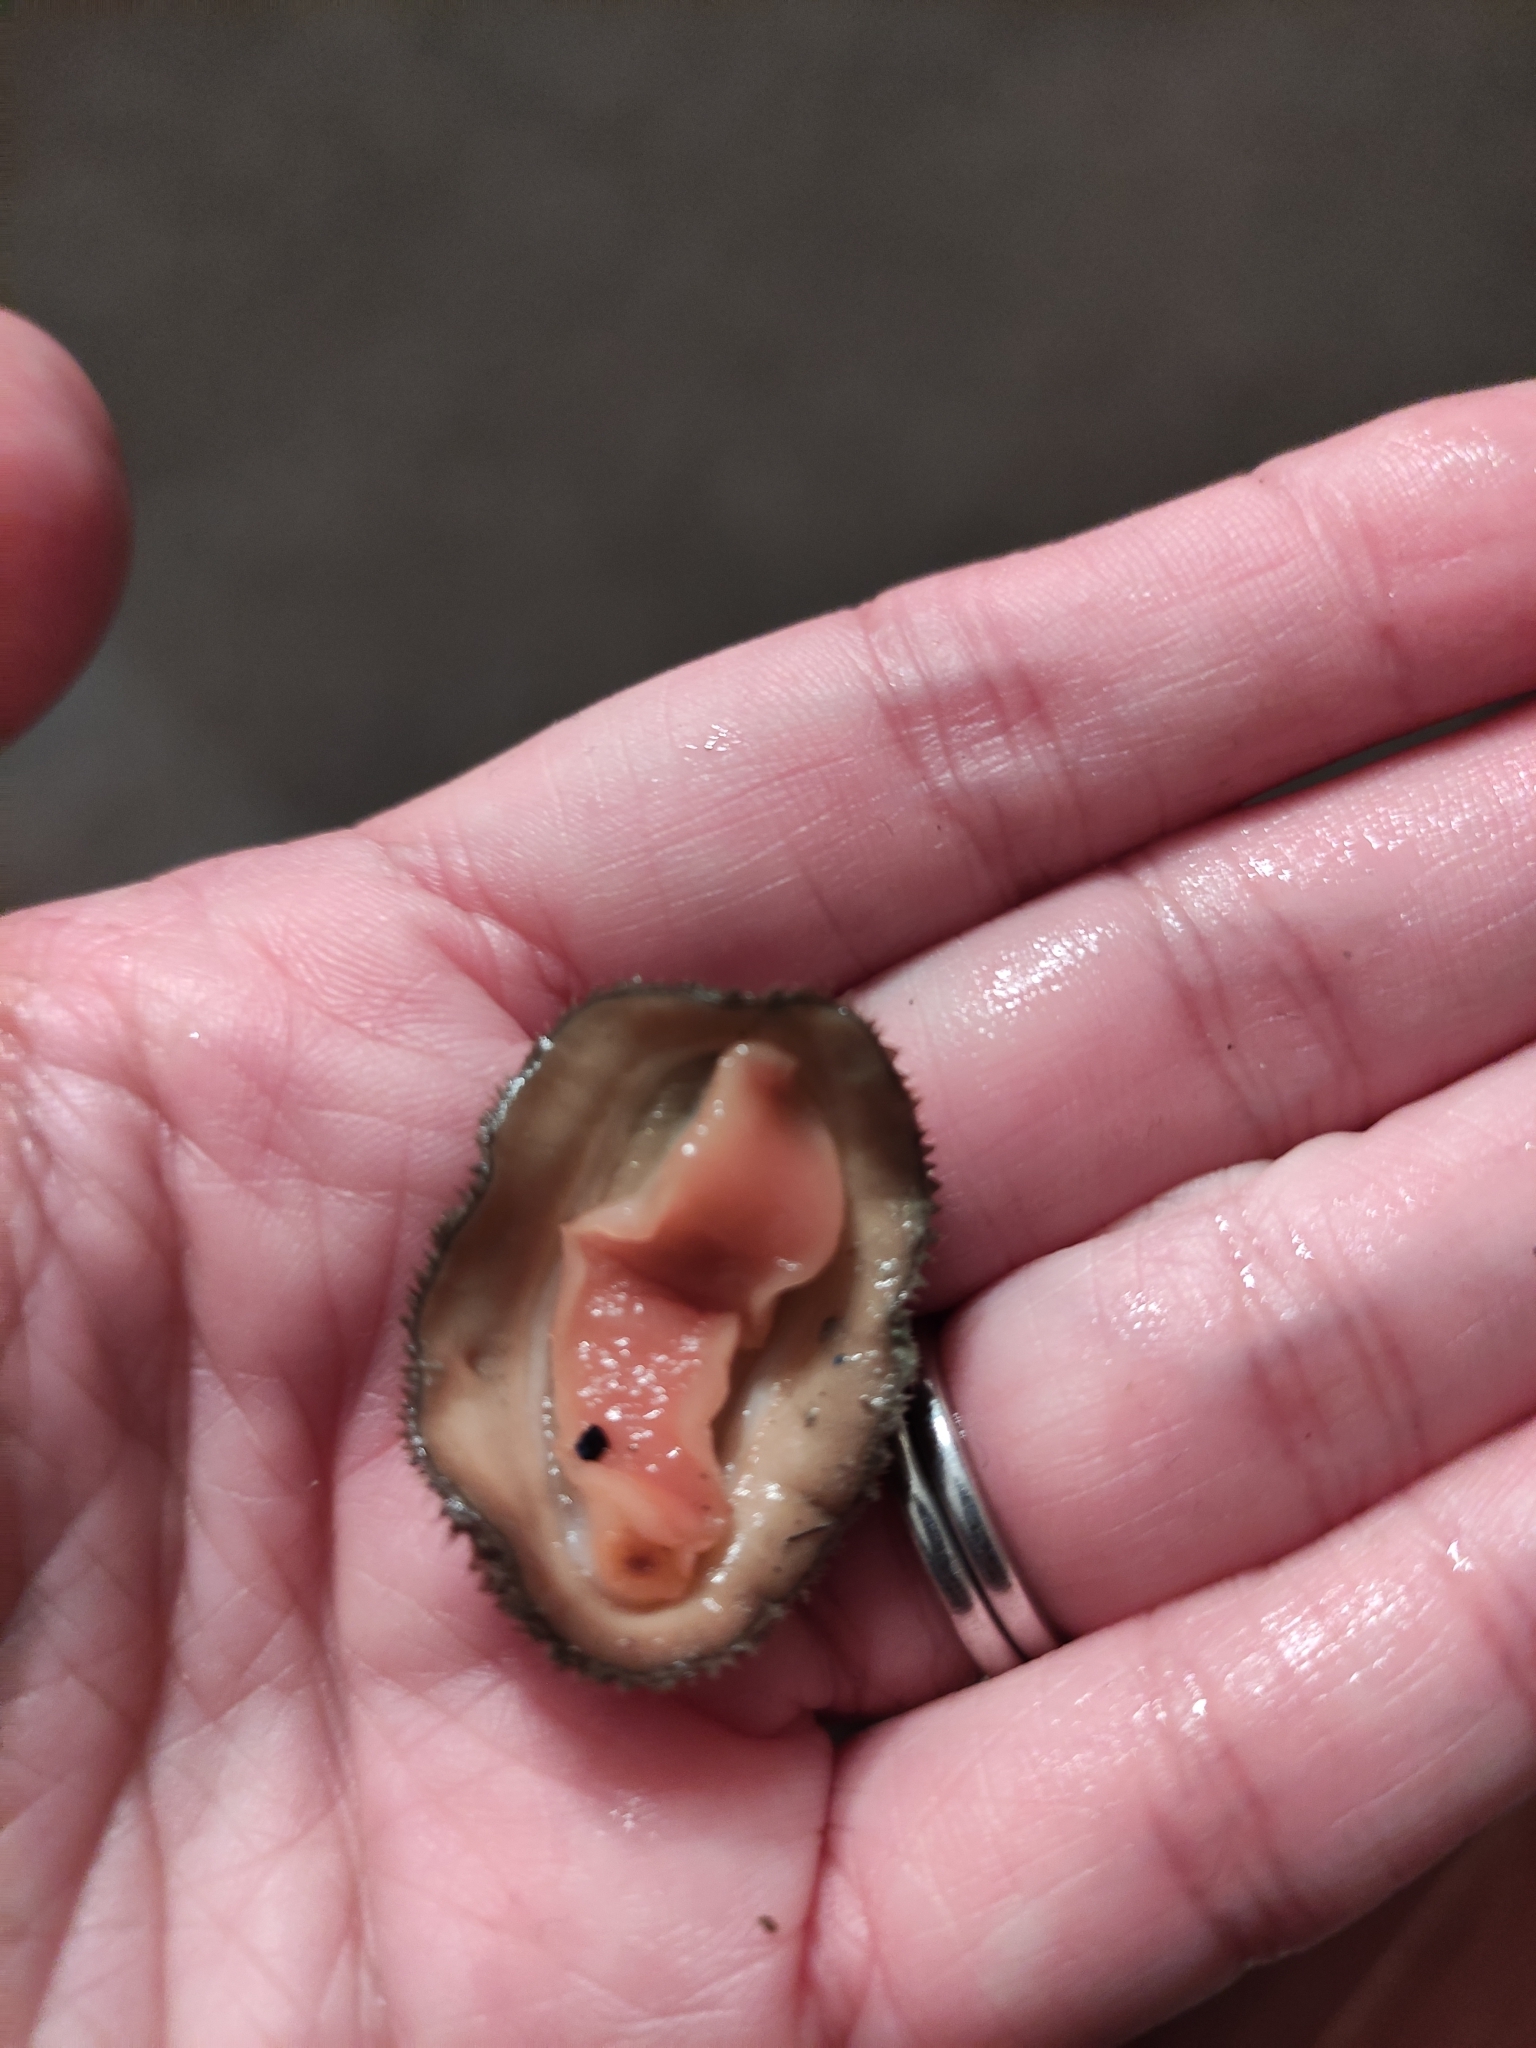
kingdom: Animalia
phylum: Mollusca
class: Polyplacophora
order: Chitonida
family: Mopaliidae
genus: Plaxiphora
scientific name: Plaxiphora obtecta
